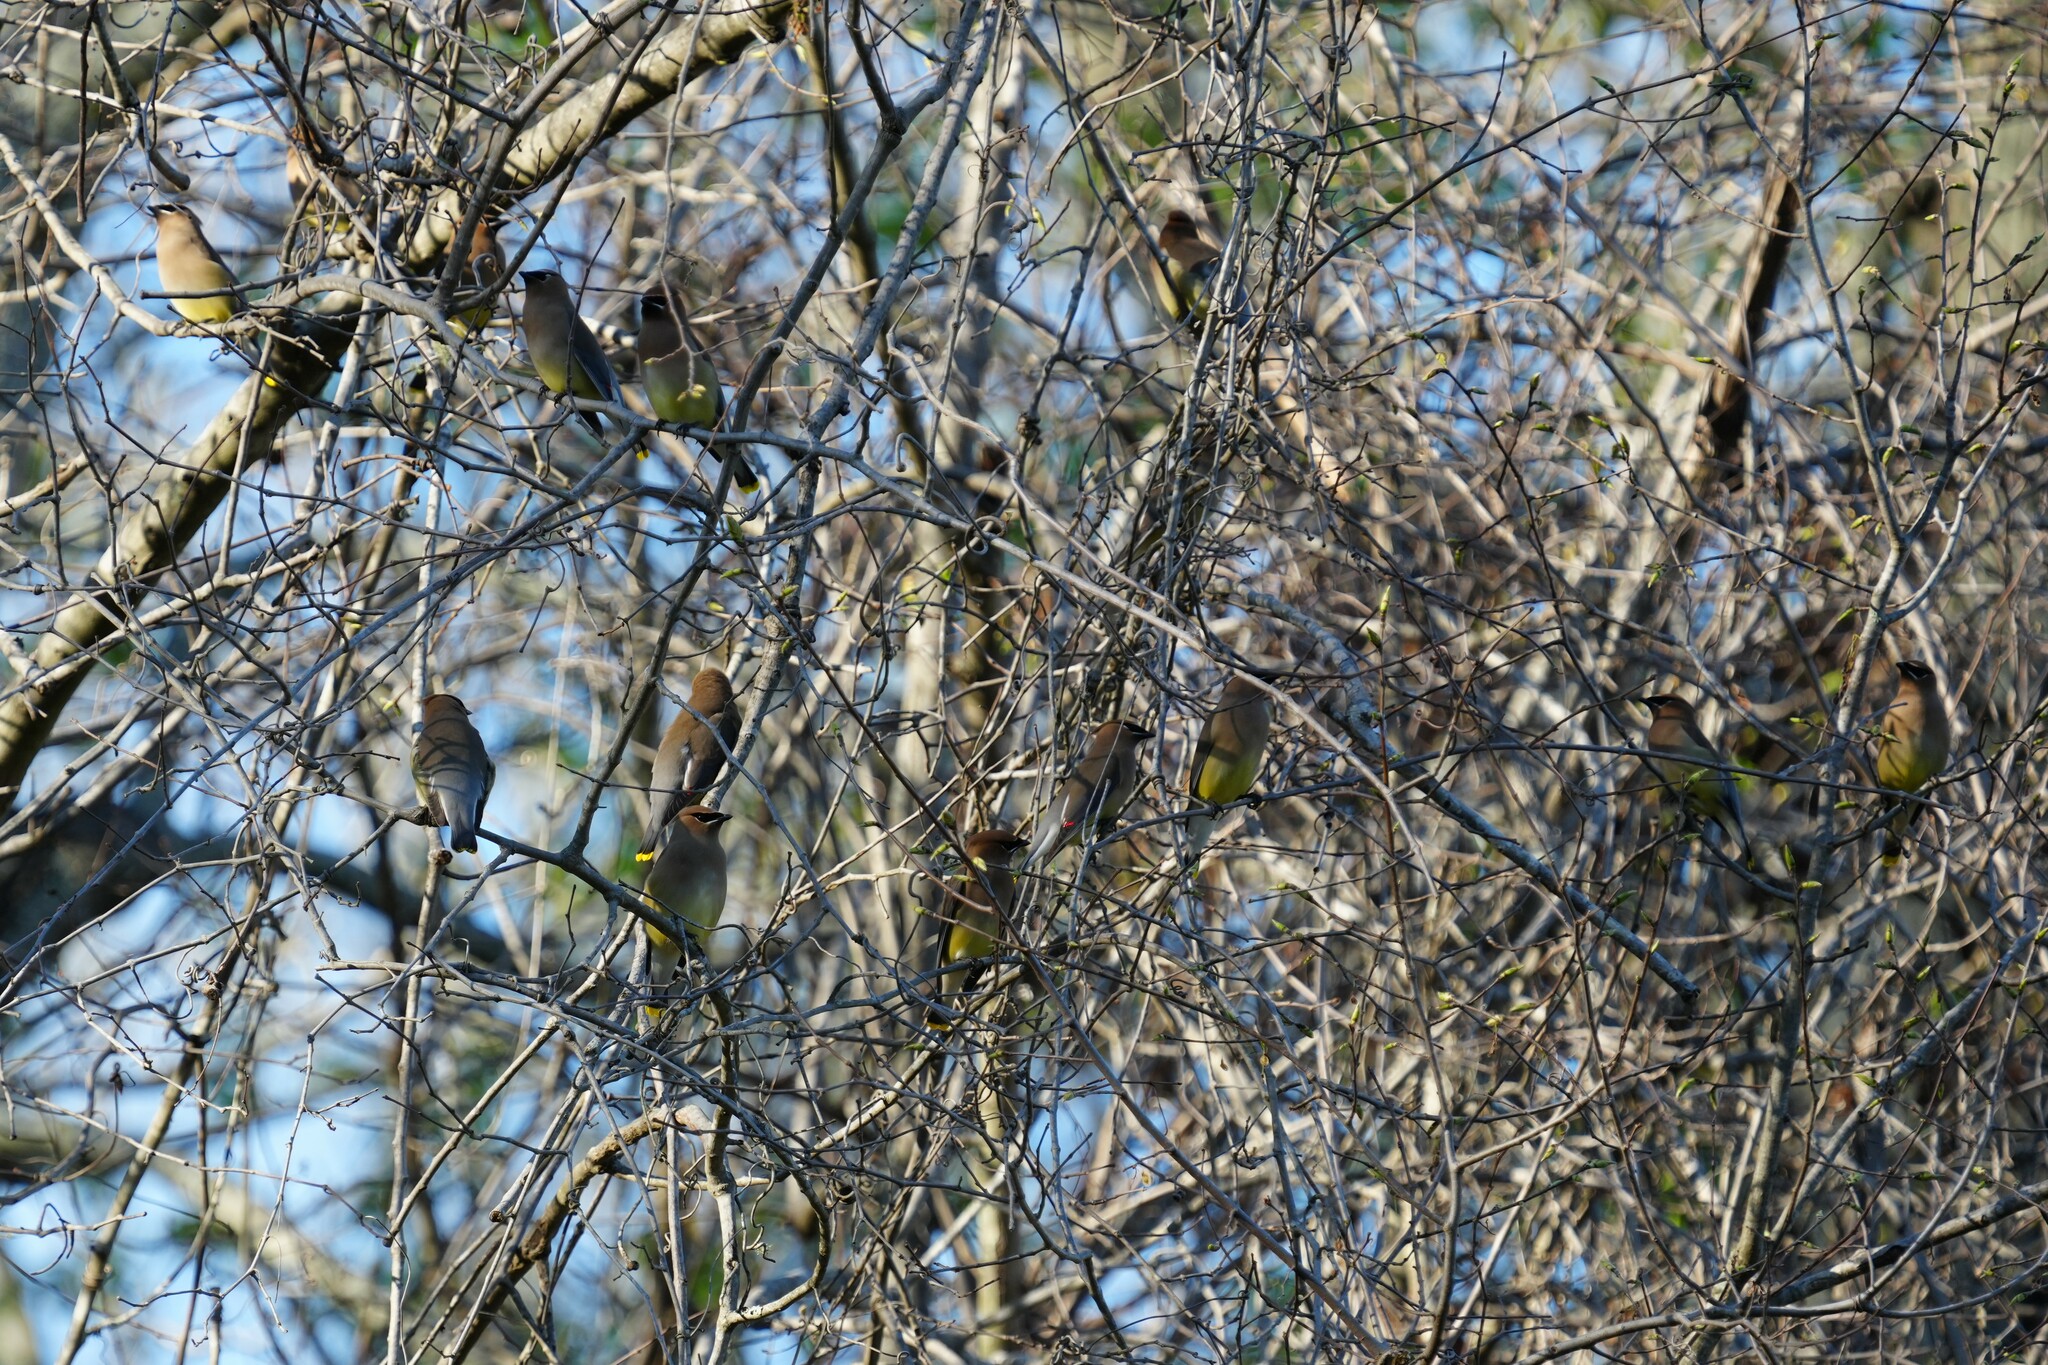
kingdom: Animalia
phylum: Chordata
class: Aves
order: Passeriformes
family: Bombycillidae
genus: Bombycilla
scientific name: Bombycilla cedrorum
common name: Cedar waxwing
